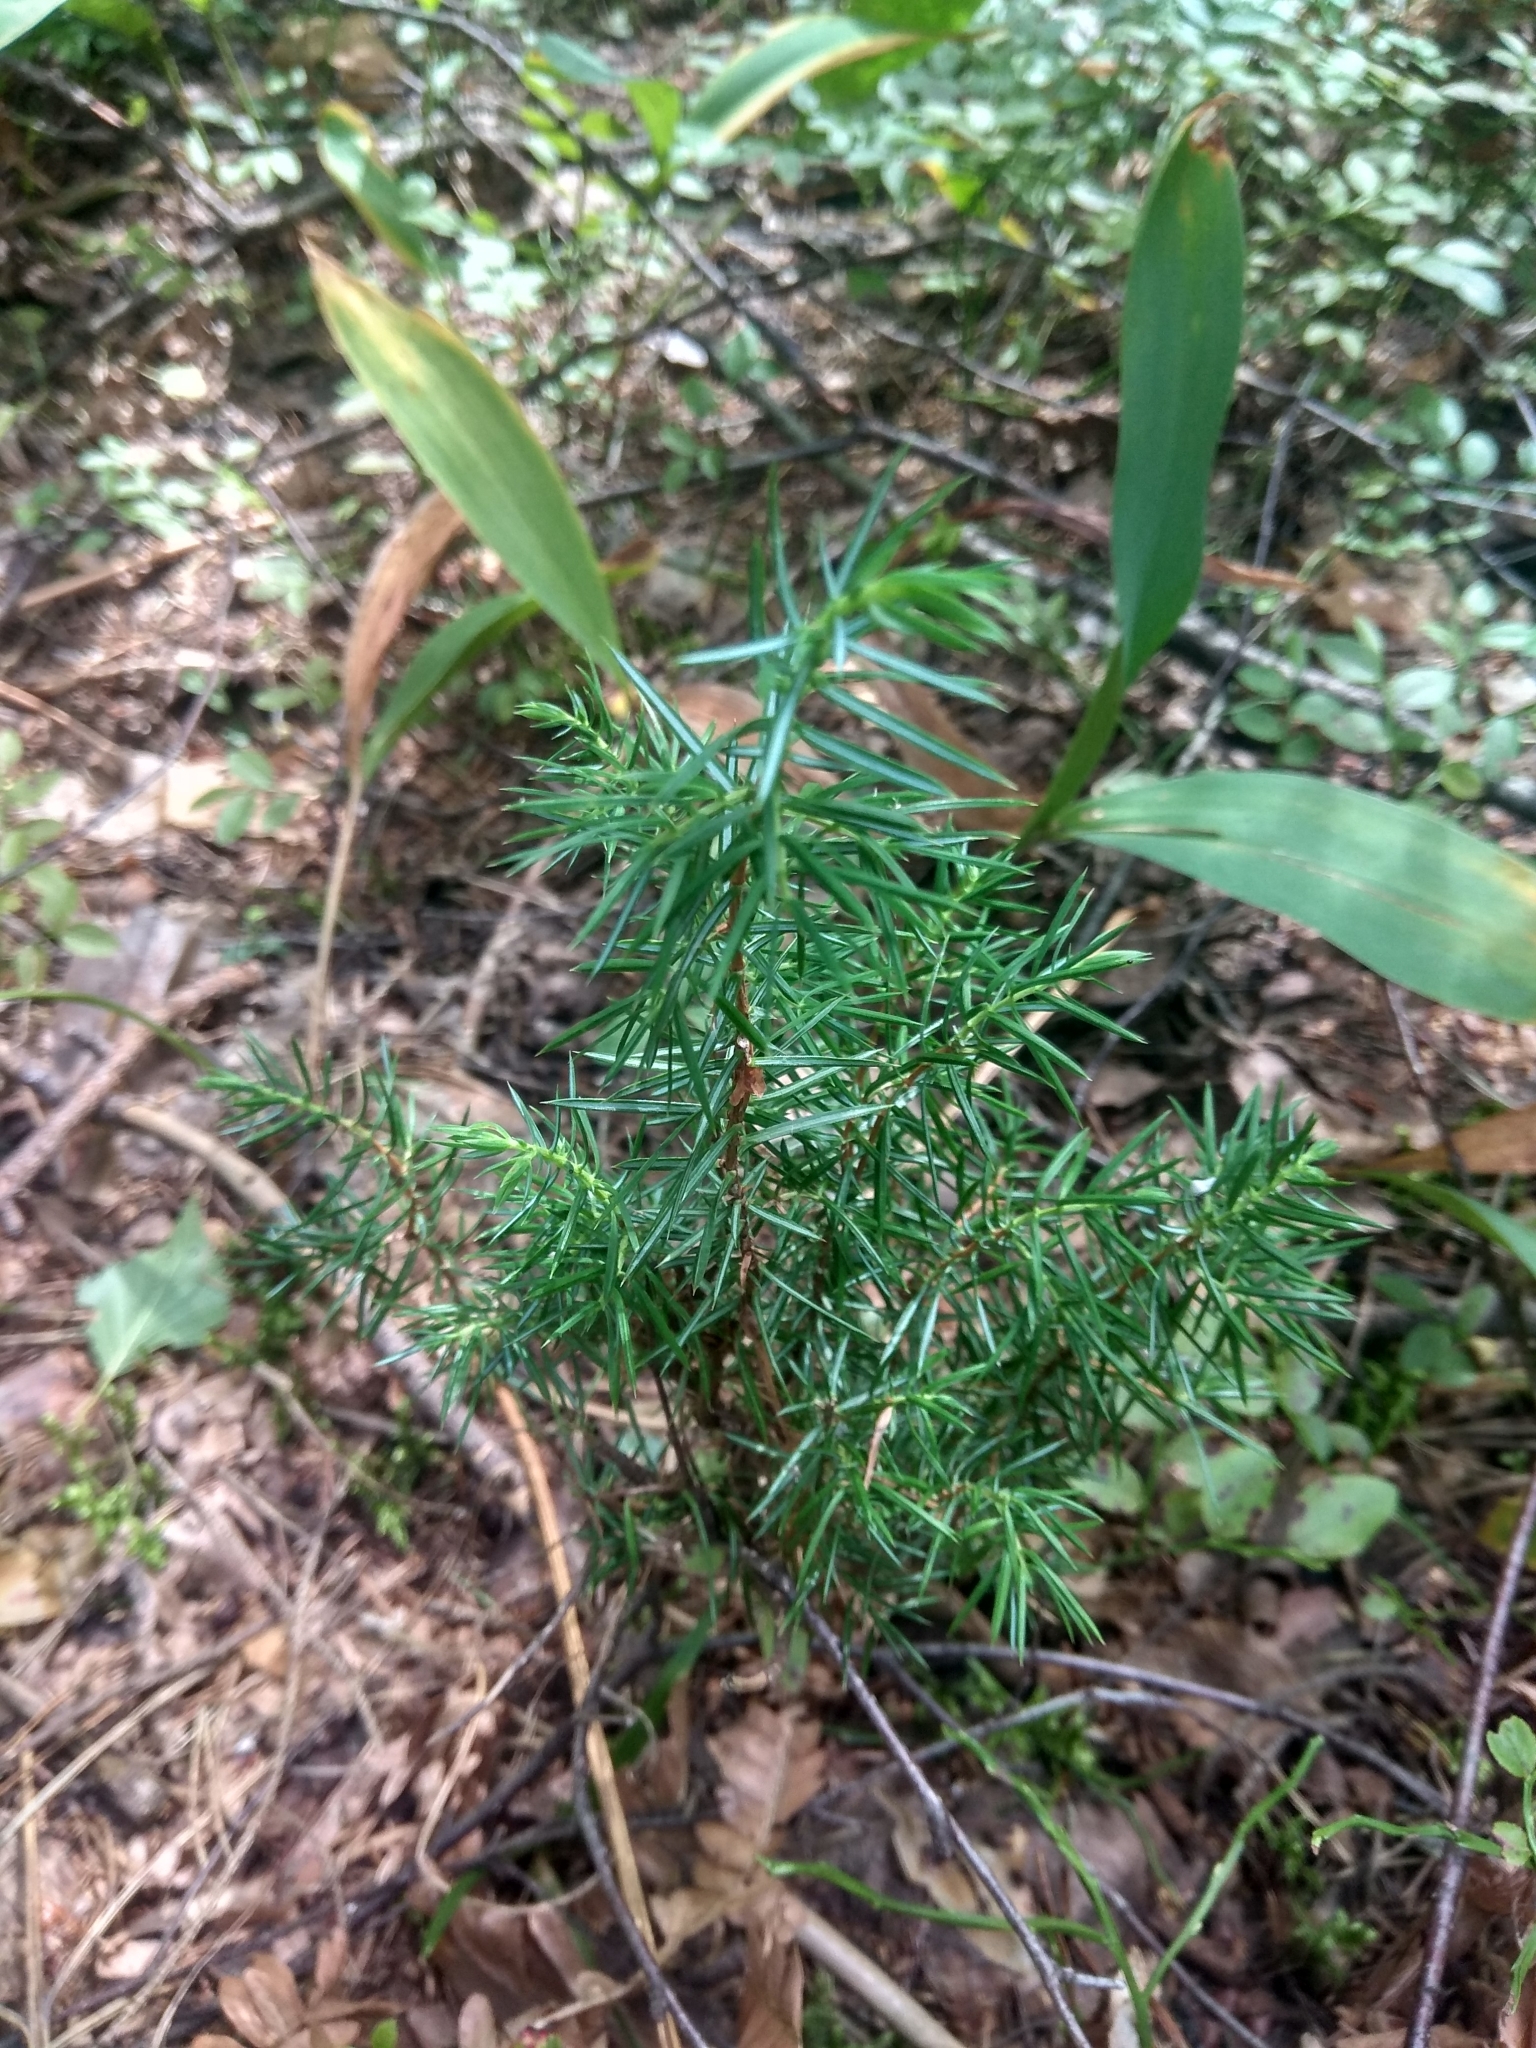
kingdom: Plantae
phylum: Tracheophyta
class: Pinopsida
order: Pinales
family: Cupressaceae
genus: Juniperus
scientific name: Juniperus communis
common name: Common juniper
